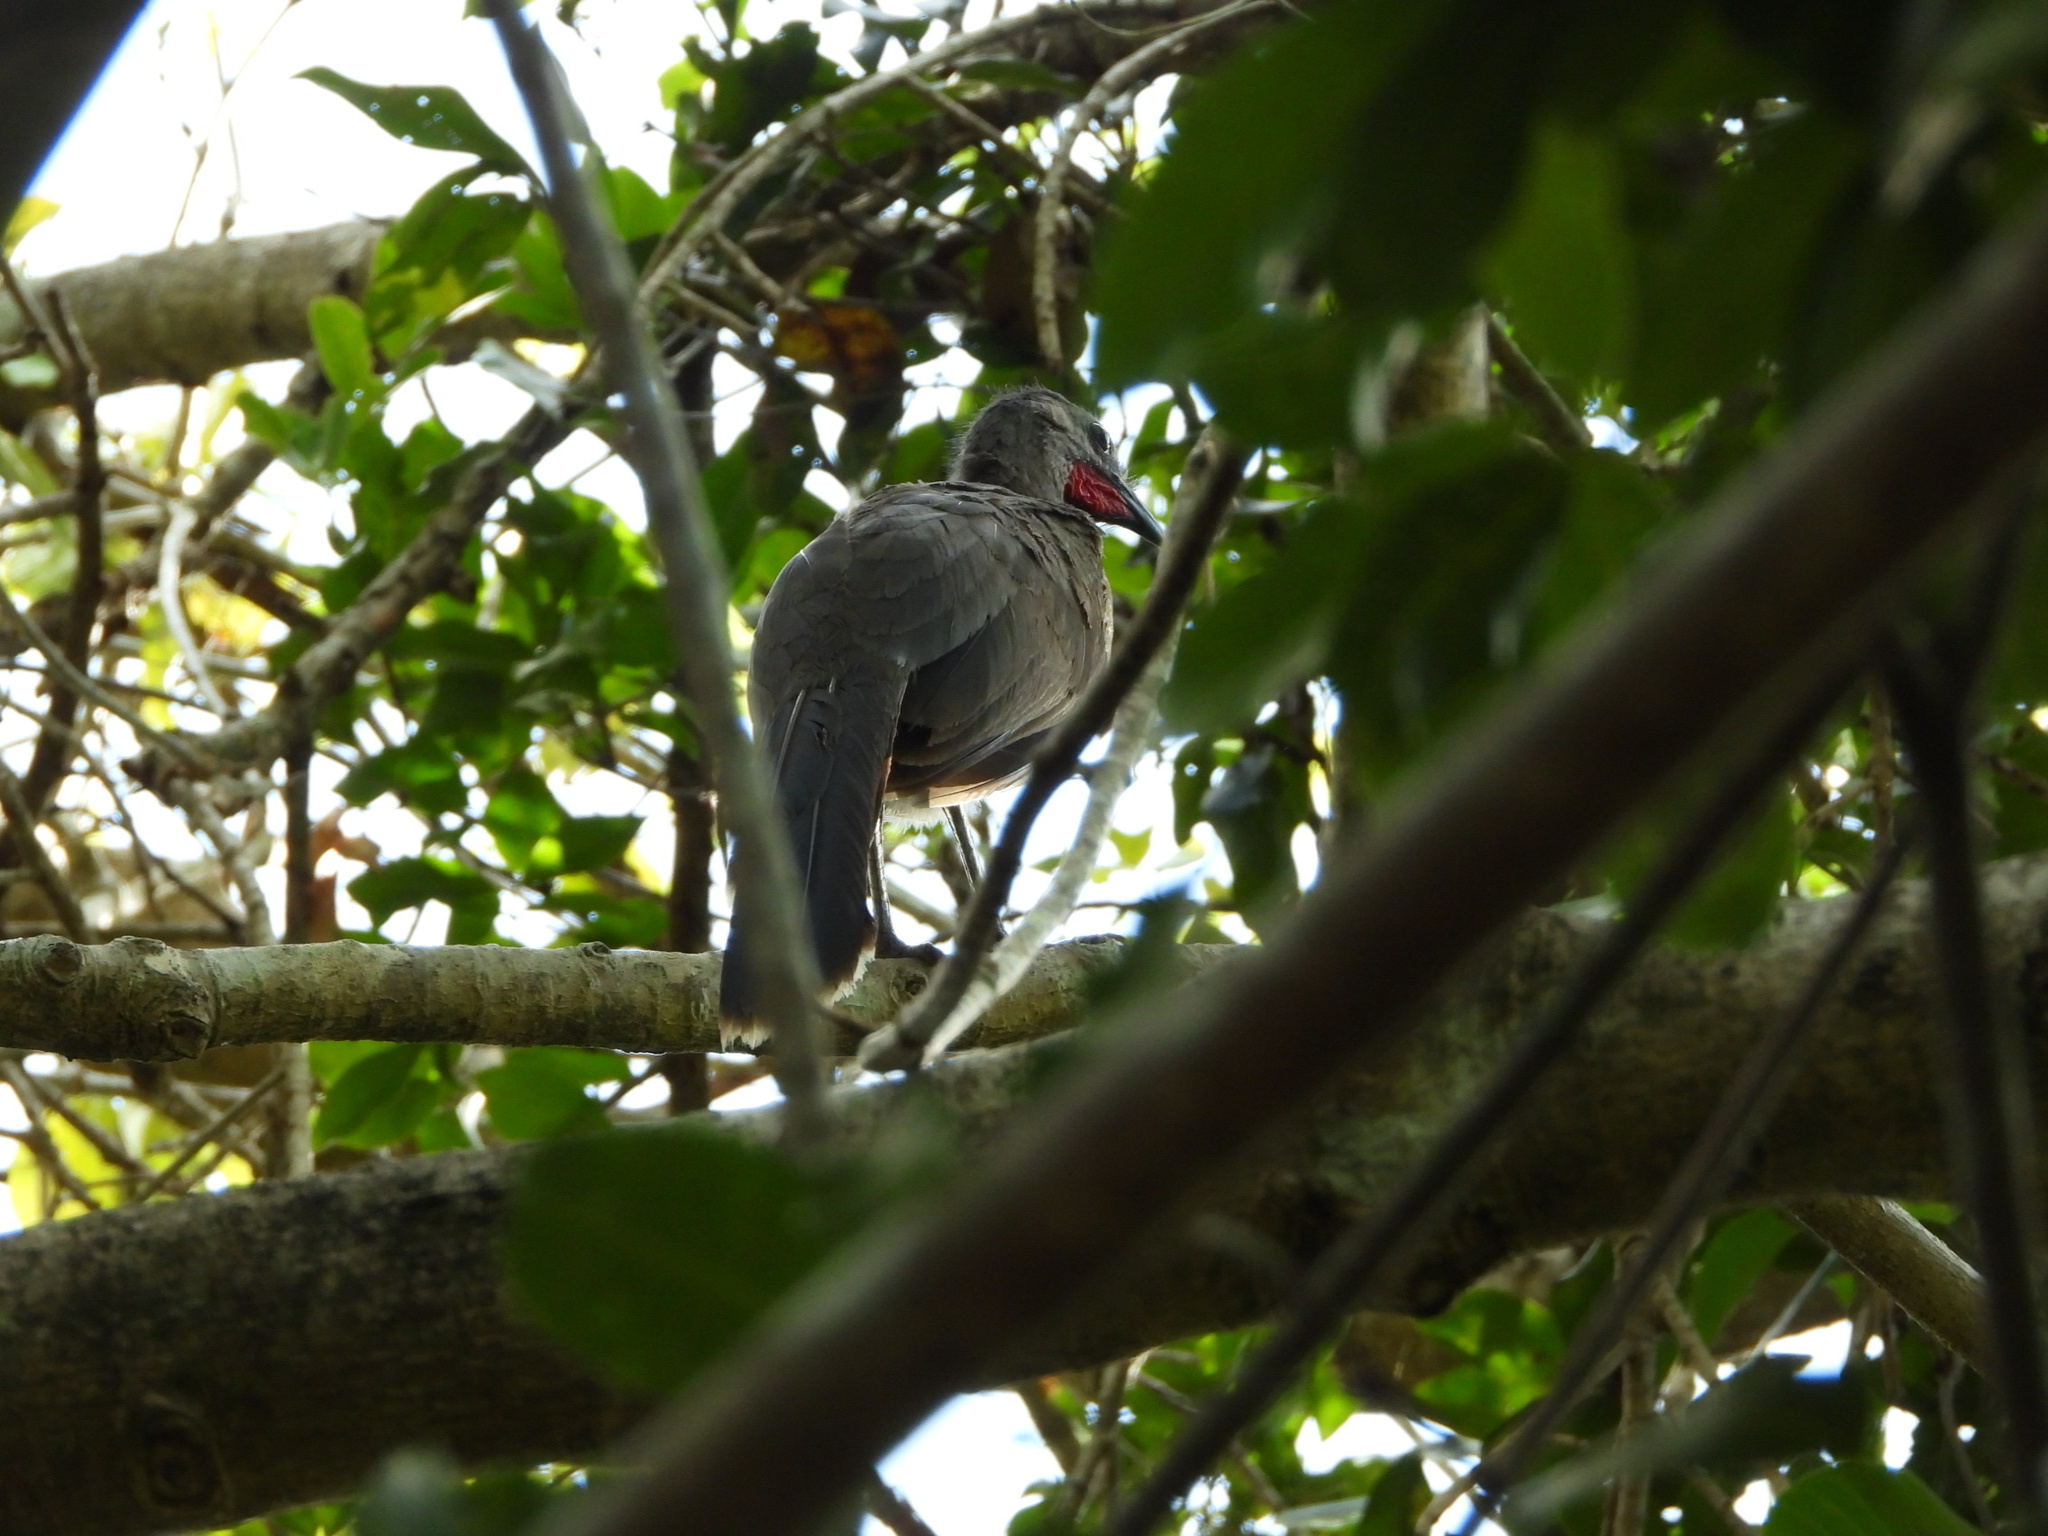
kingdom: Animalia
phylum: Chordata
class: Aves
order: Galliformes
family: Cracidae
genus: Ortalis
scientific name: Ortalis vetula
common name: Plain chachalaca
